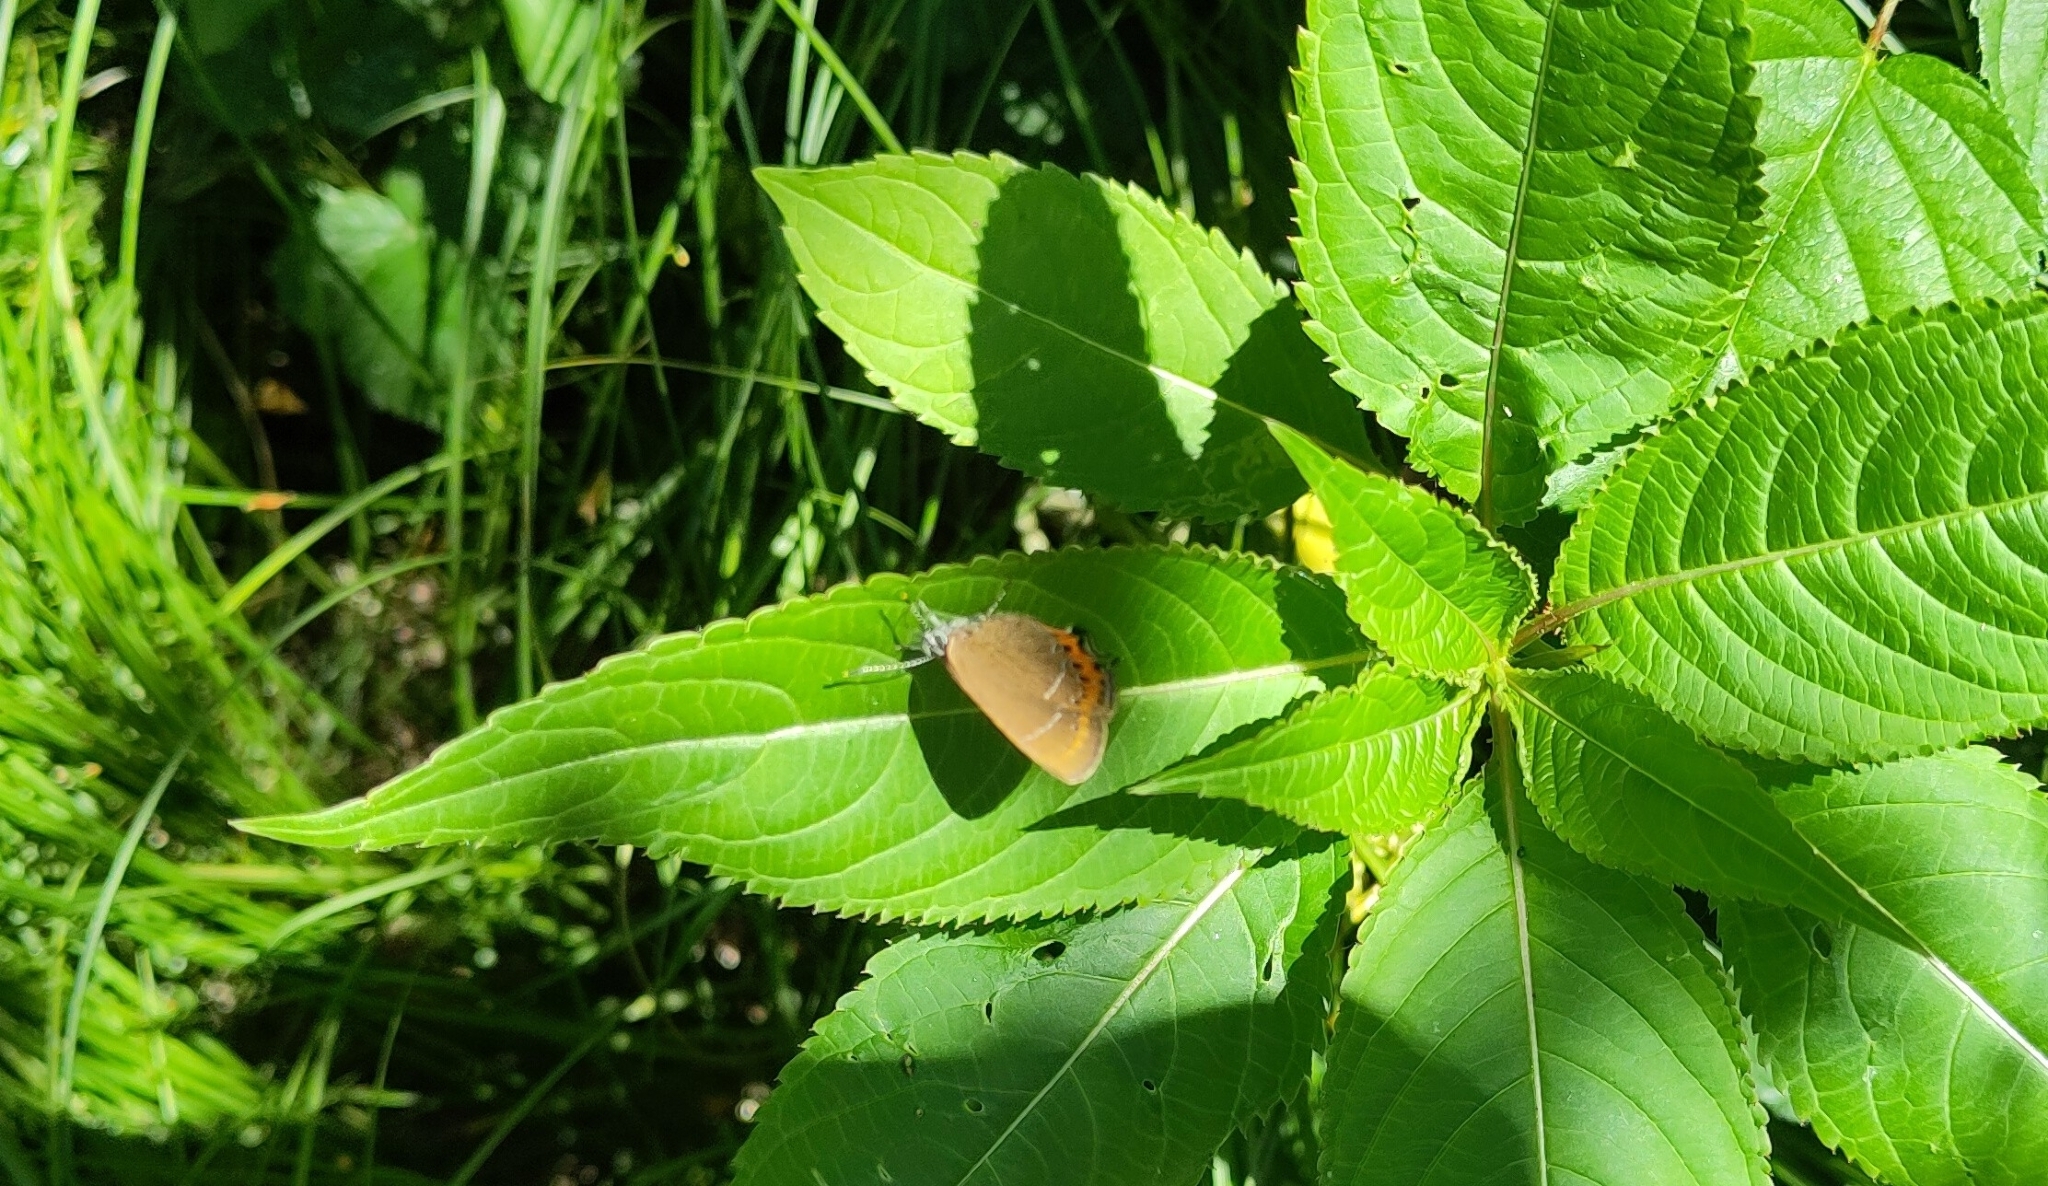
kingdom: Animalia
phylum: Arthropoda
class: Insecta
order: Lepidoptera
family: Lycaenidae
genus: Fixsenia
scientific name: Fixsenia pruni
